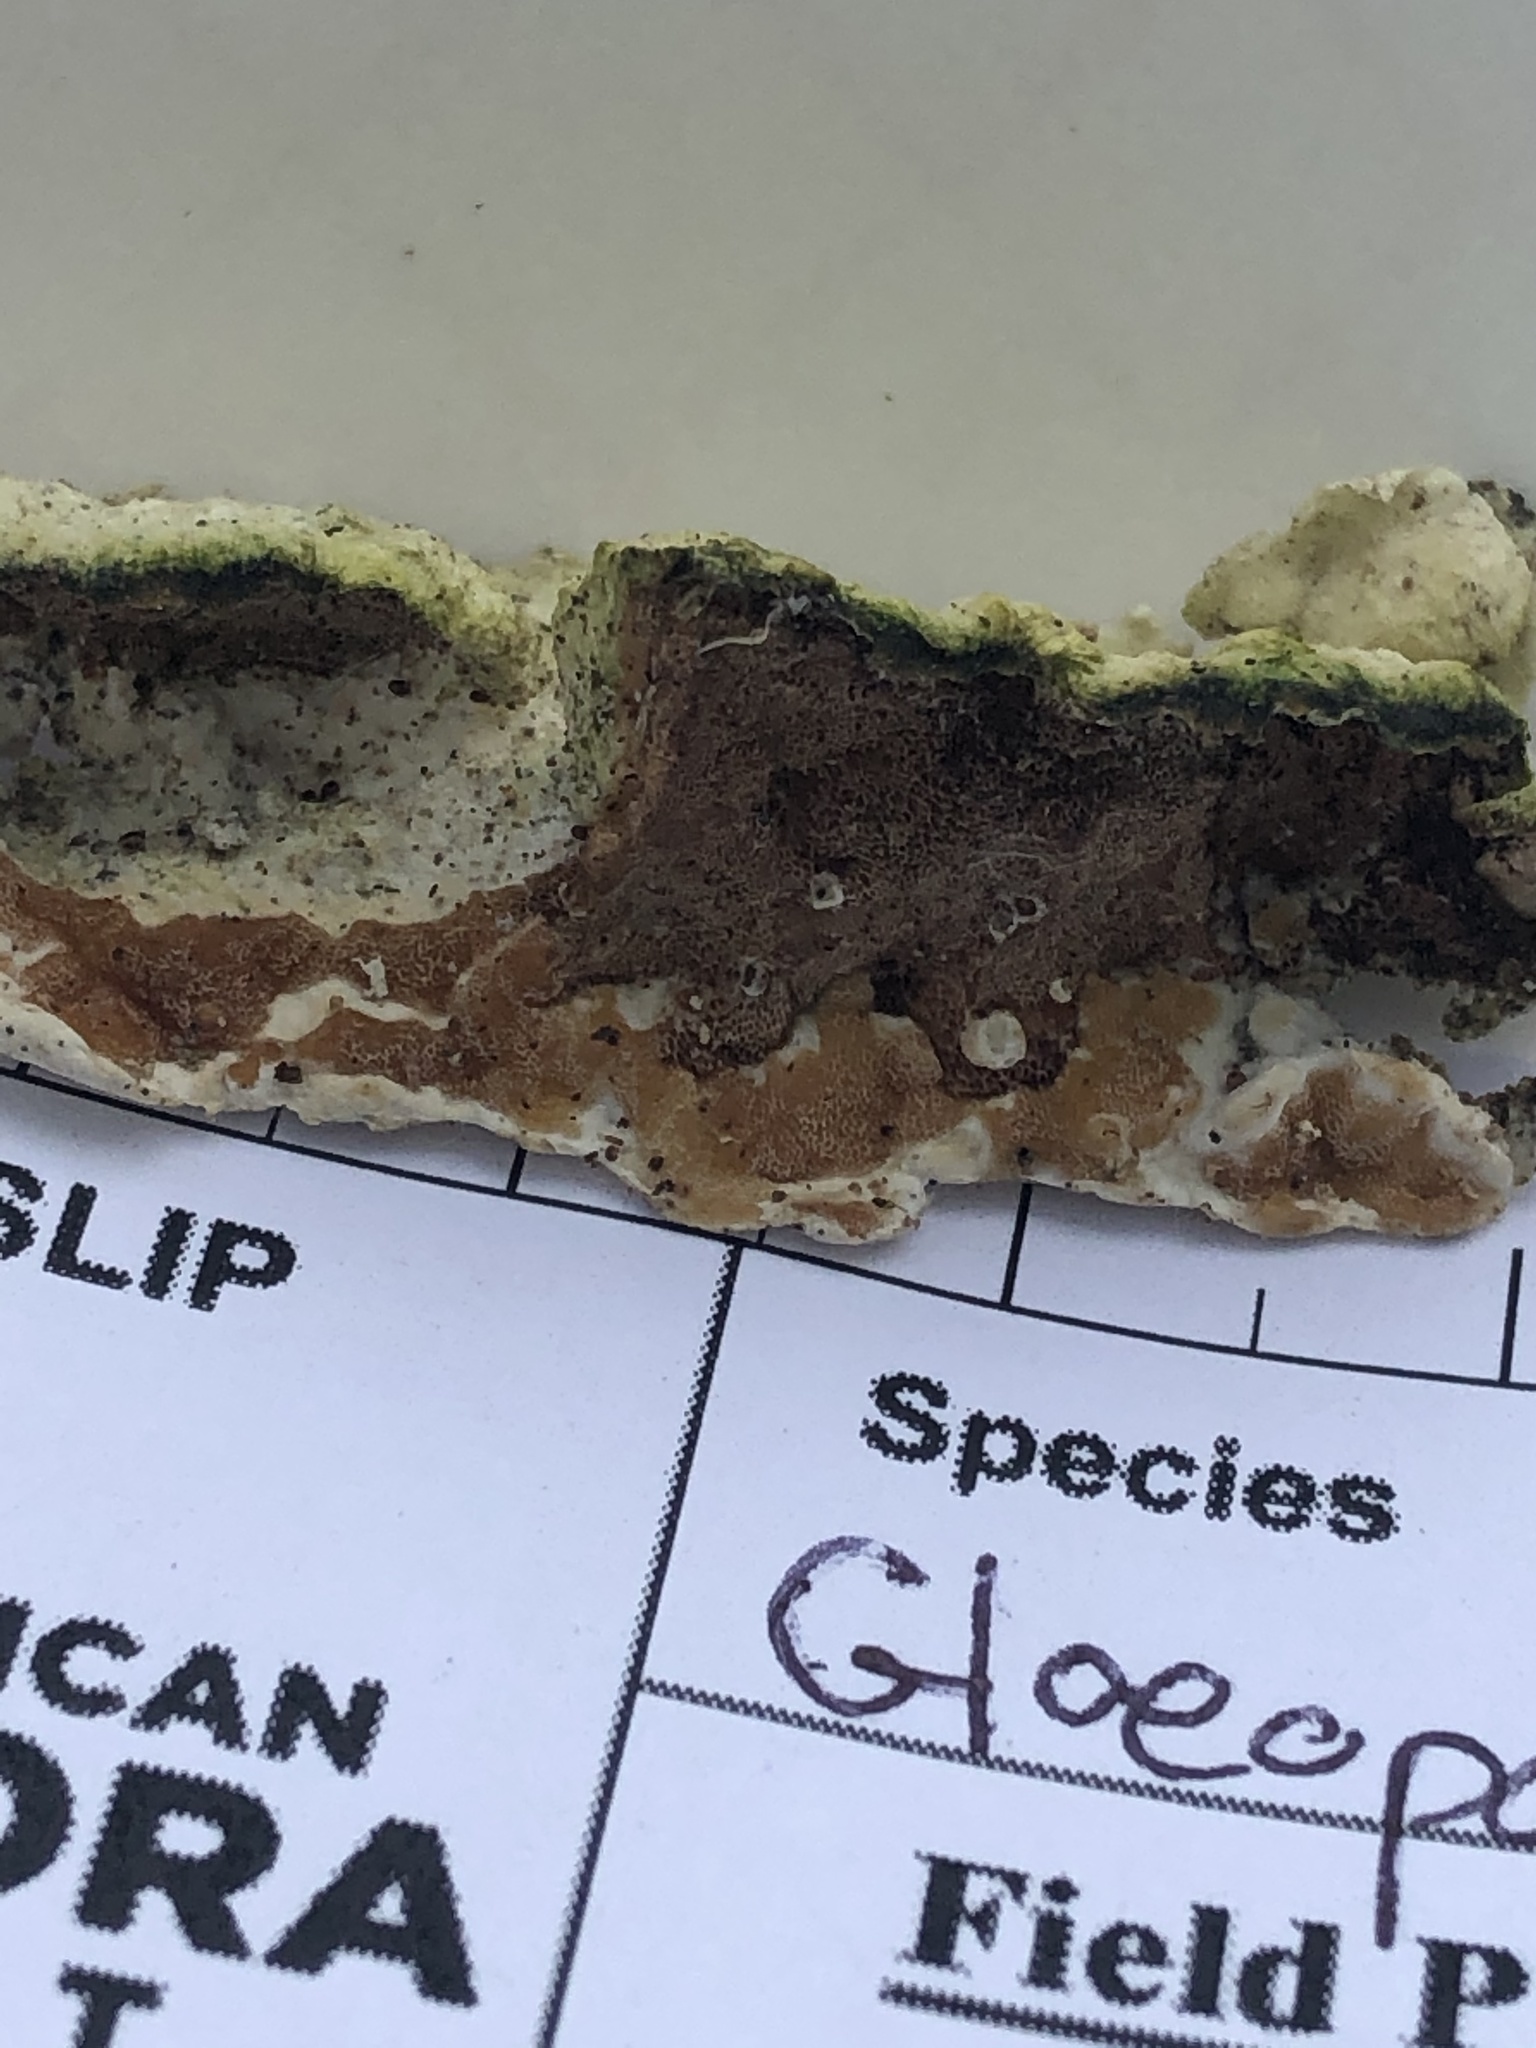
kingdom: Fungi
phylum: Basidiomycota
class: Agaricomycetes
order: Polyporales
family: Irpicaceae
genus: Vitreoporus
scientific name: Vitreoporus dichrous
